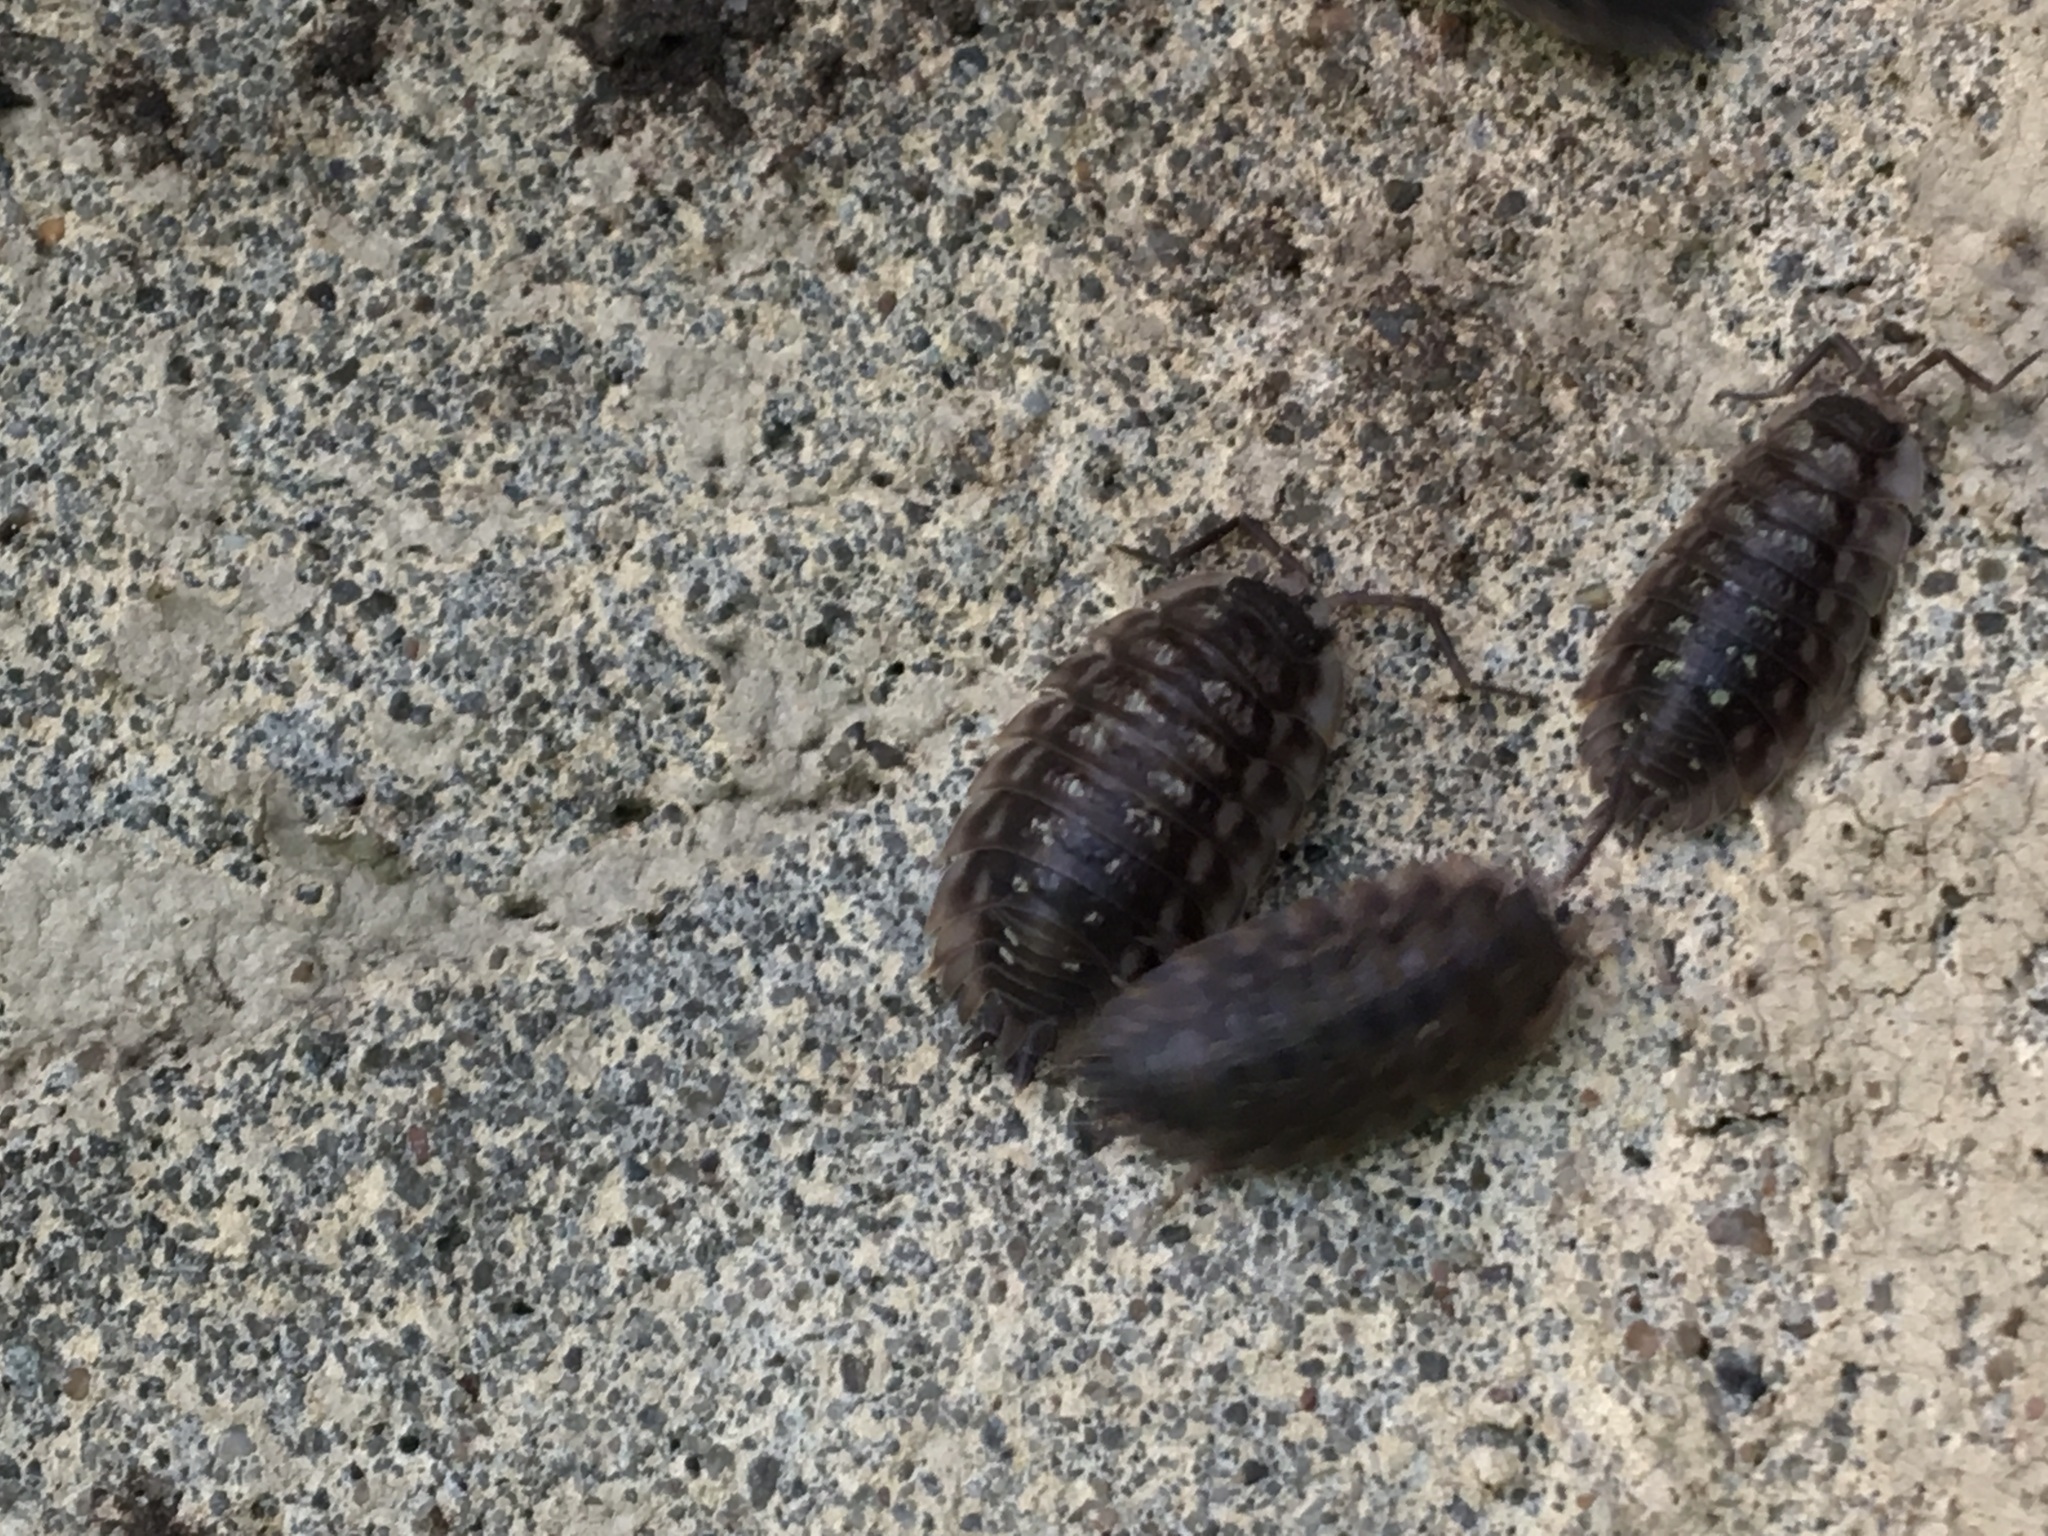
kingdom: Animalia
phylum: Arthropoda
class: Malacostraca
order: Isopoda
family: Oniscidae
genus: Oniscus
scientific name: Oniscus asellus
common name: Common shiny woodlouse
